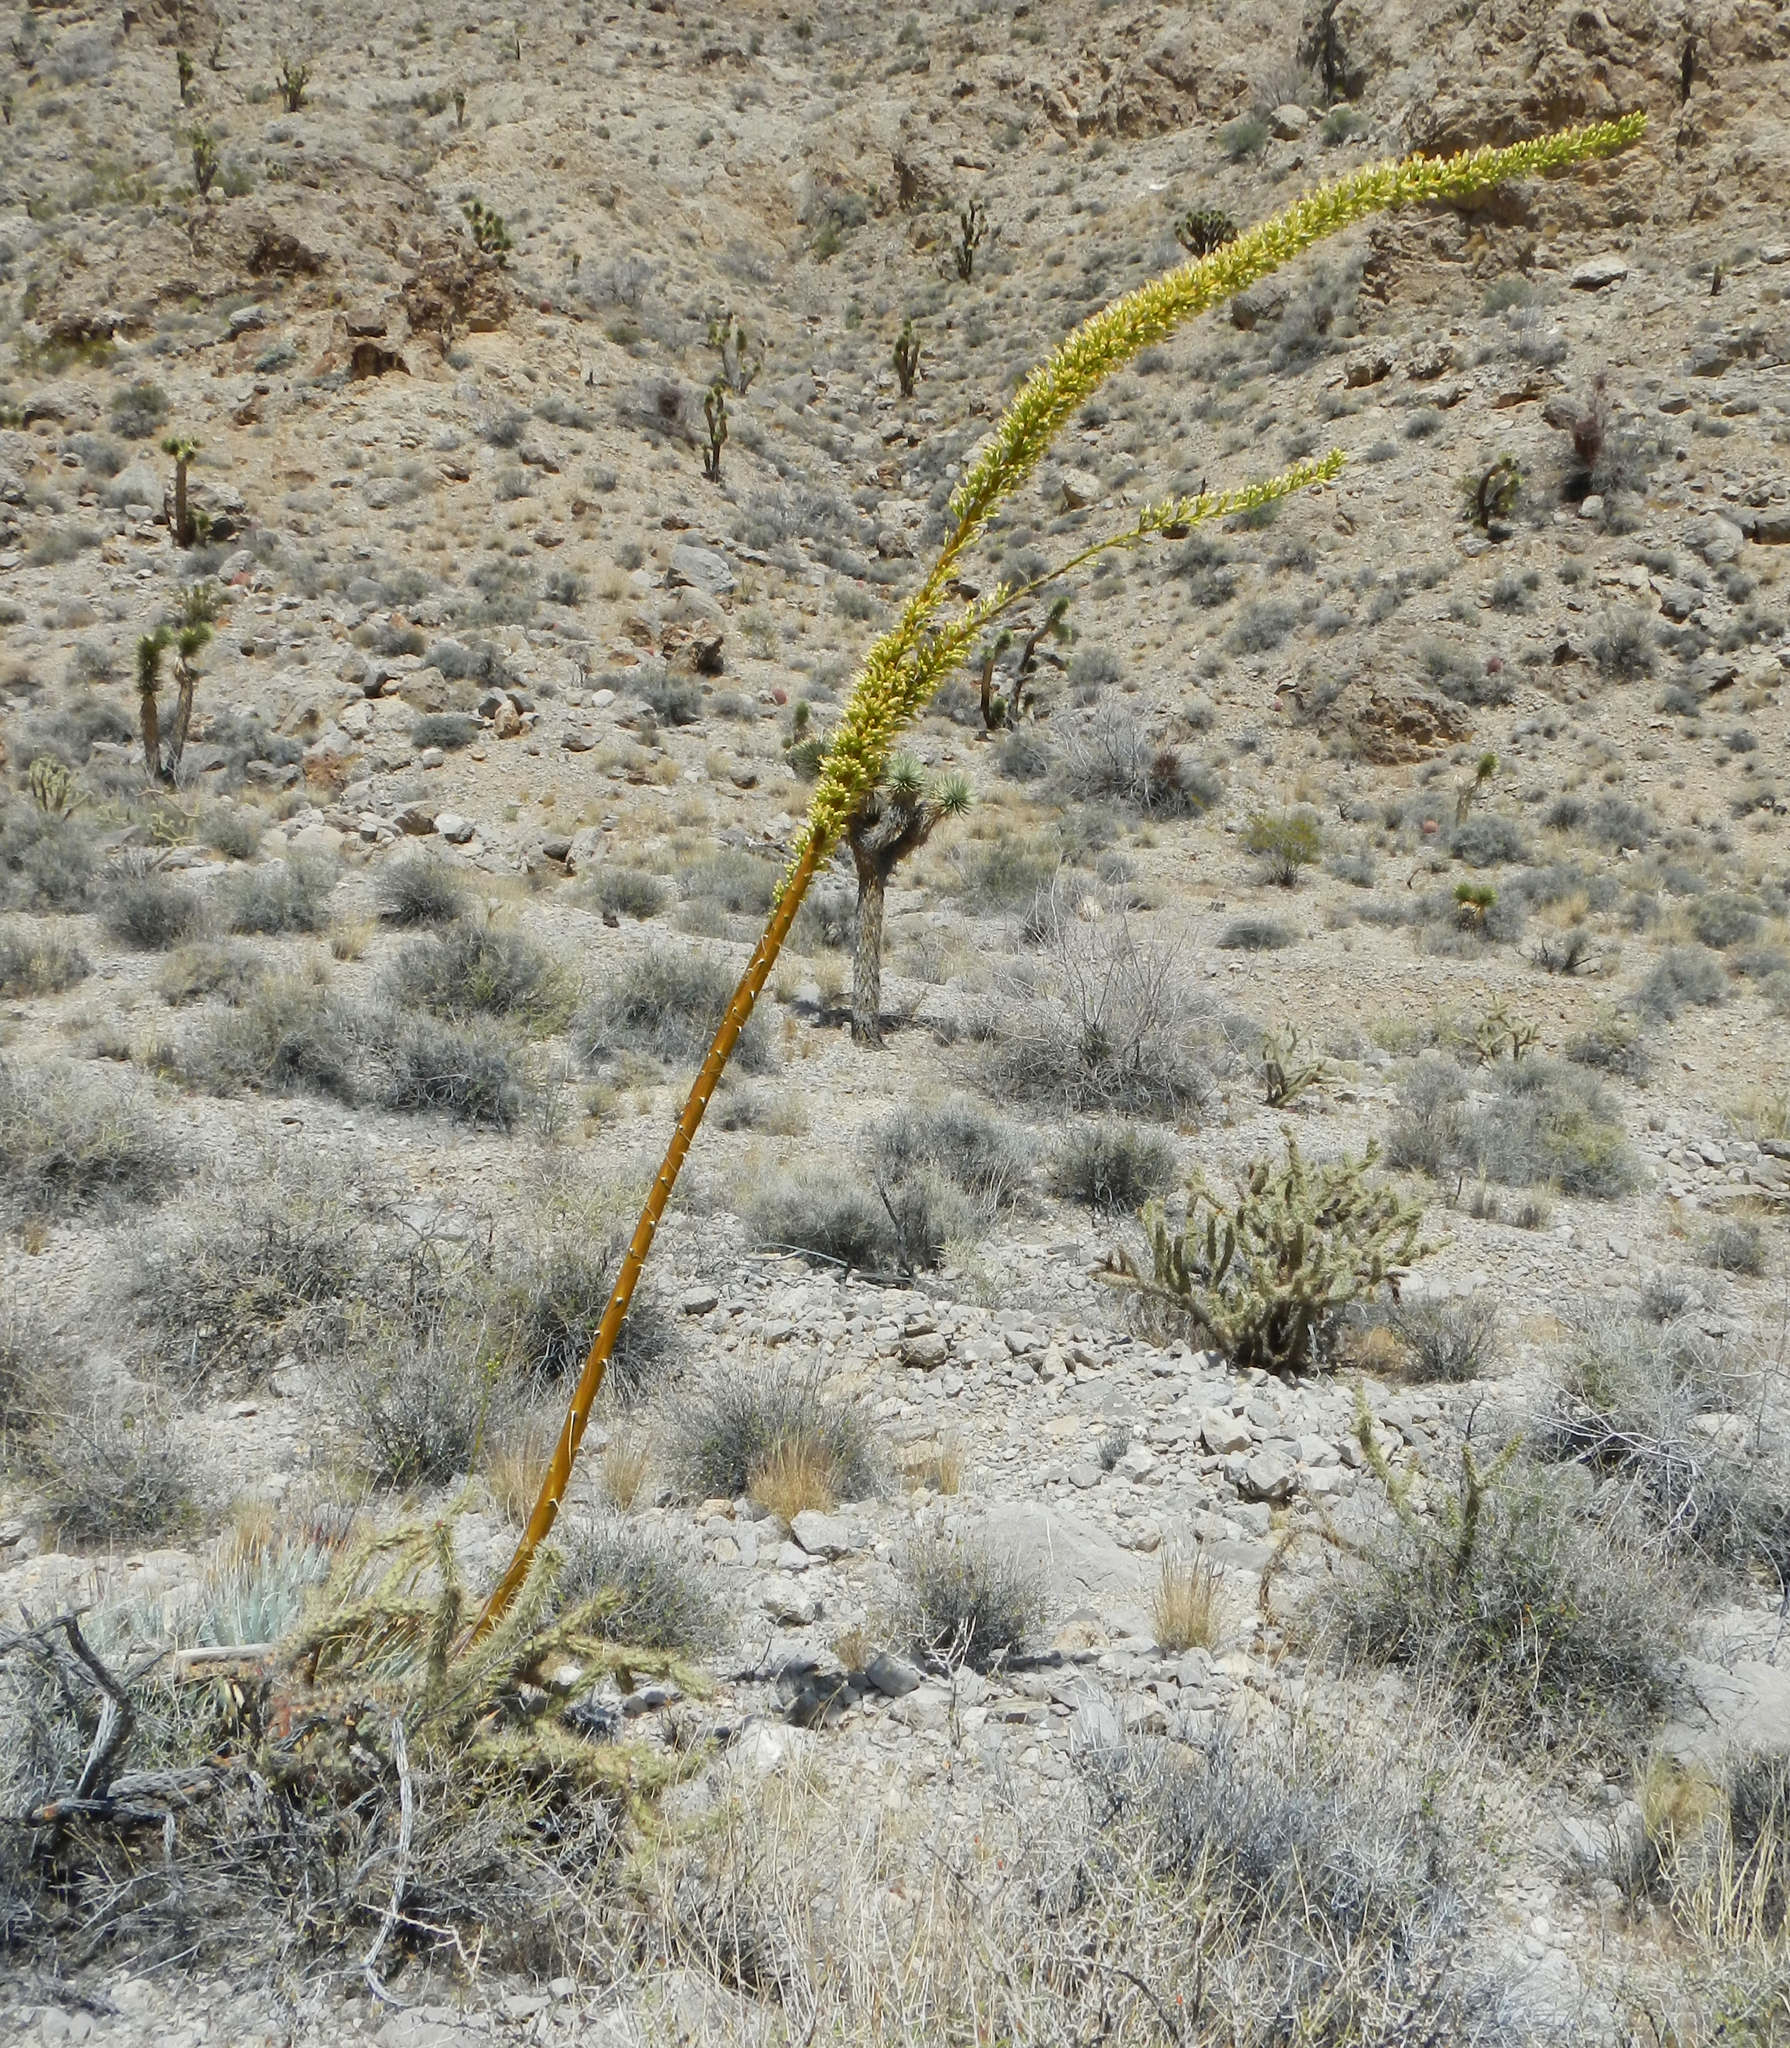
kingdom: Plantae
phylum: Tracheophyta
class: Liliopsida
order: Asparagales
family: Asparagaceae
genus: Agave
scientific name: Agave utahensis
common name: Utah agave
